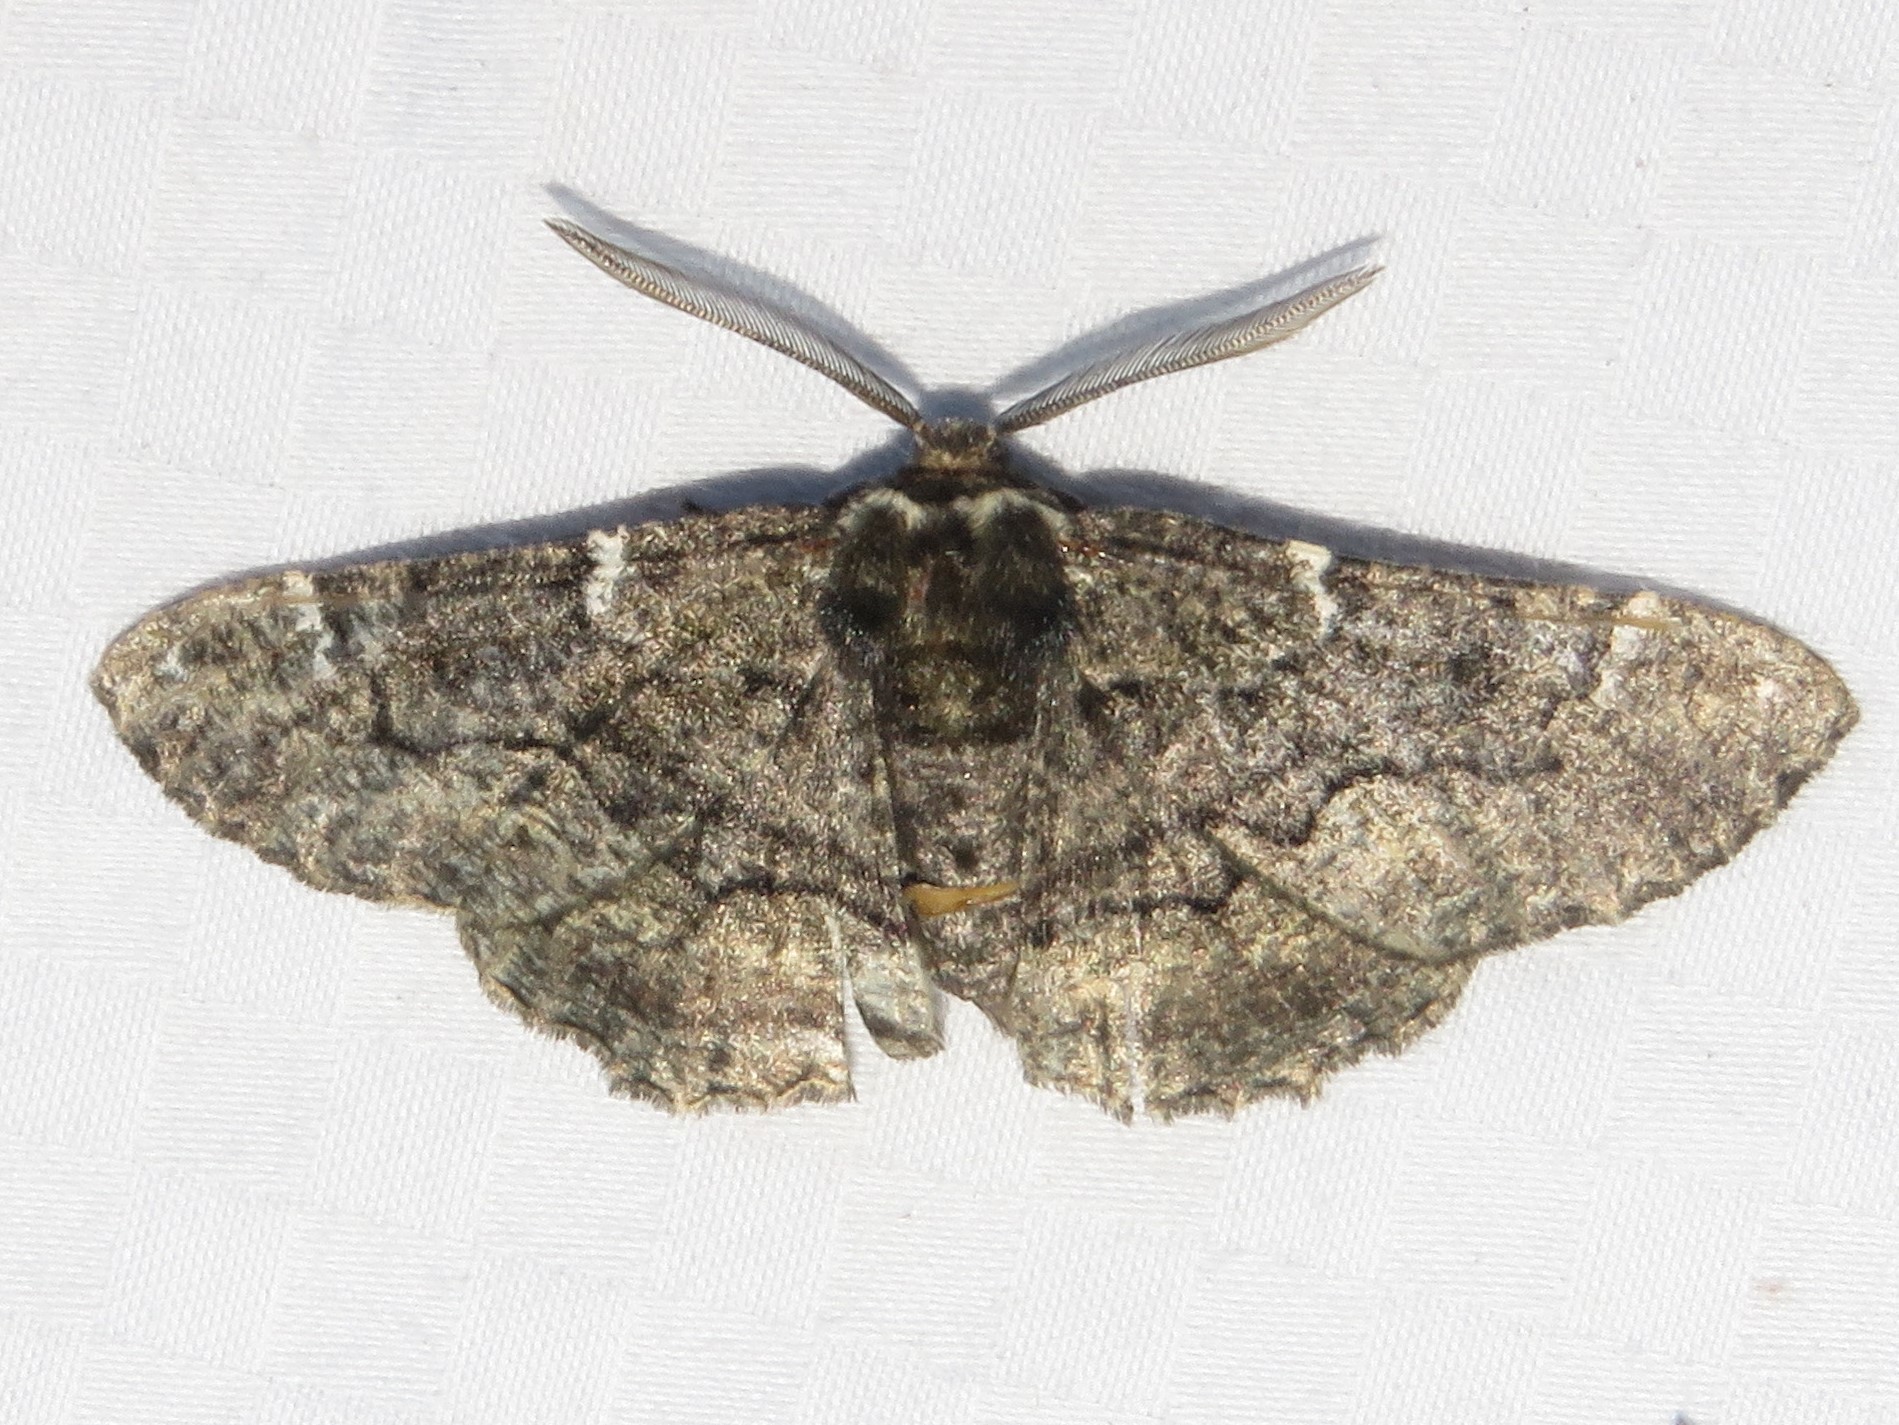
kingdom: Animalia
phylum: Arthropoda
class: Insecta
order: Lepidoptera
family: Geometridae
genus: Phaeoura
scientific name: Phaeoura quernaria
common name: Oak beauty
